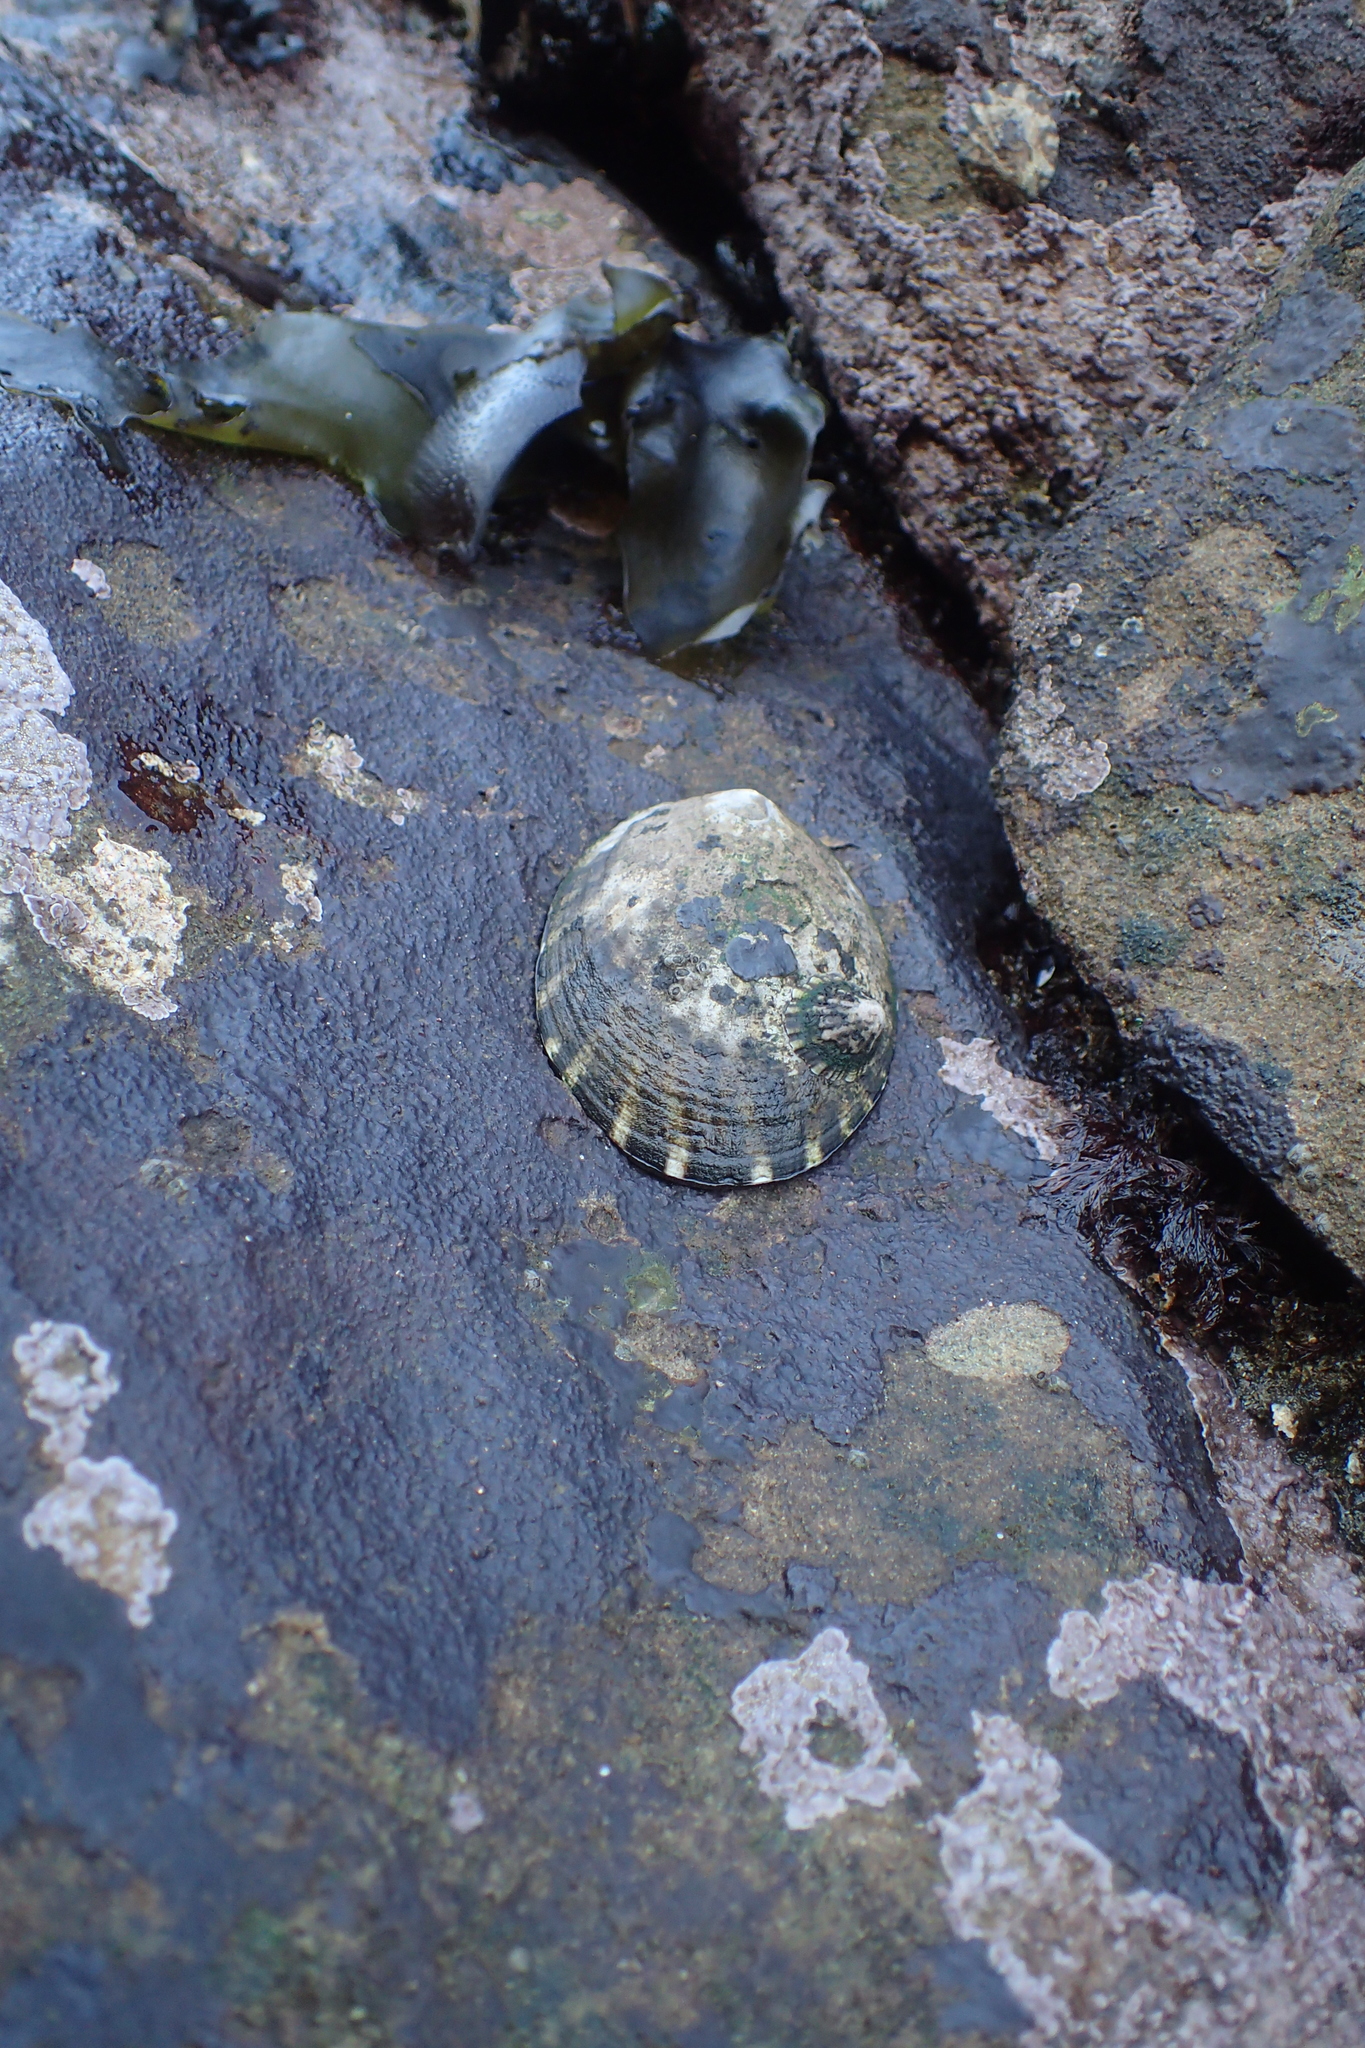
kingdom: Animalia
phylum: Mollusca
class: Gastropoda
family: Lottiidae
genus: Lottia
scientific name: Lottia gigantea
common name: Owl limpet
